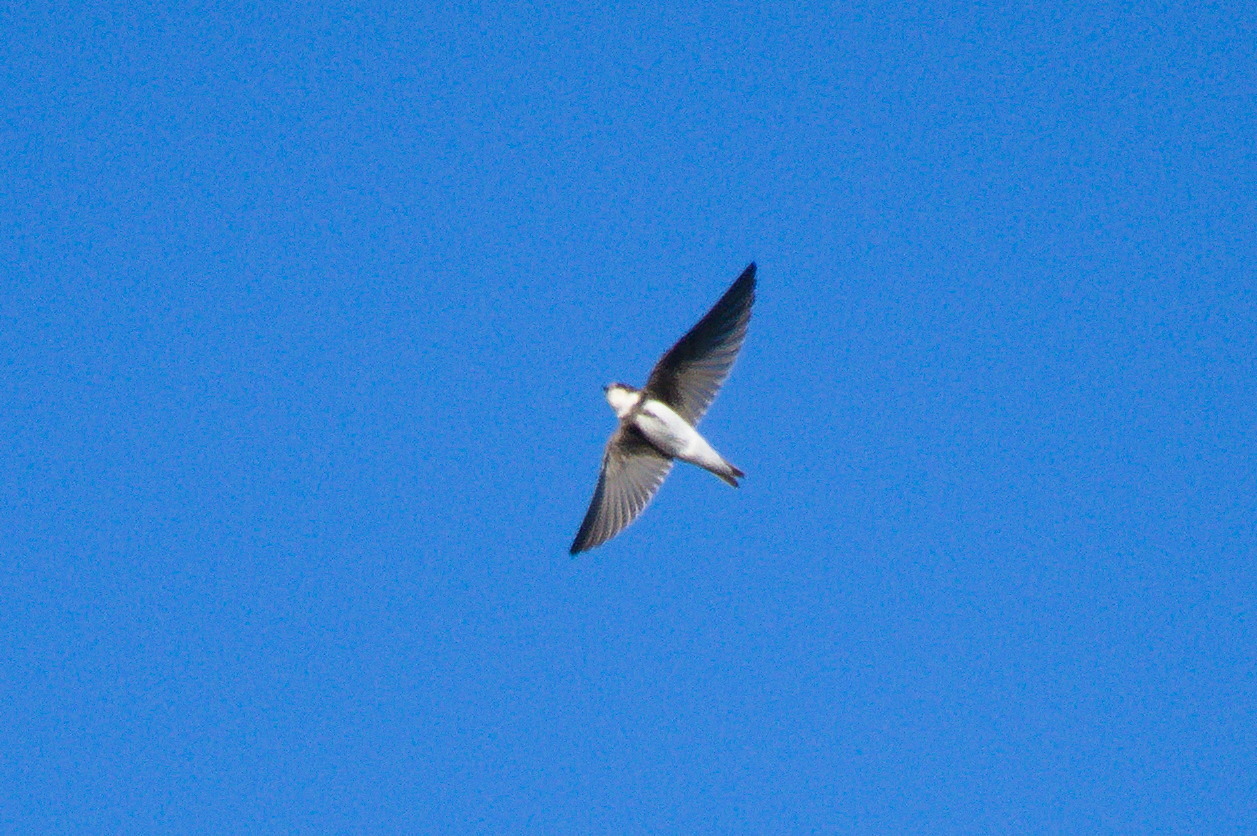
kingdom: Animalia
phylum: Chordata
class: Aves
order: Passeriformes
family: Hirundinidae
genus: Riparia
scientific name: Riparia riparia
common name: Sand martin
